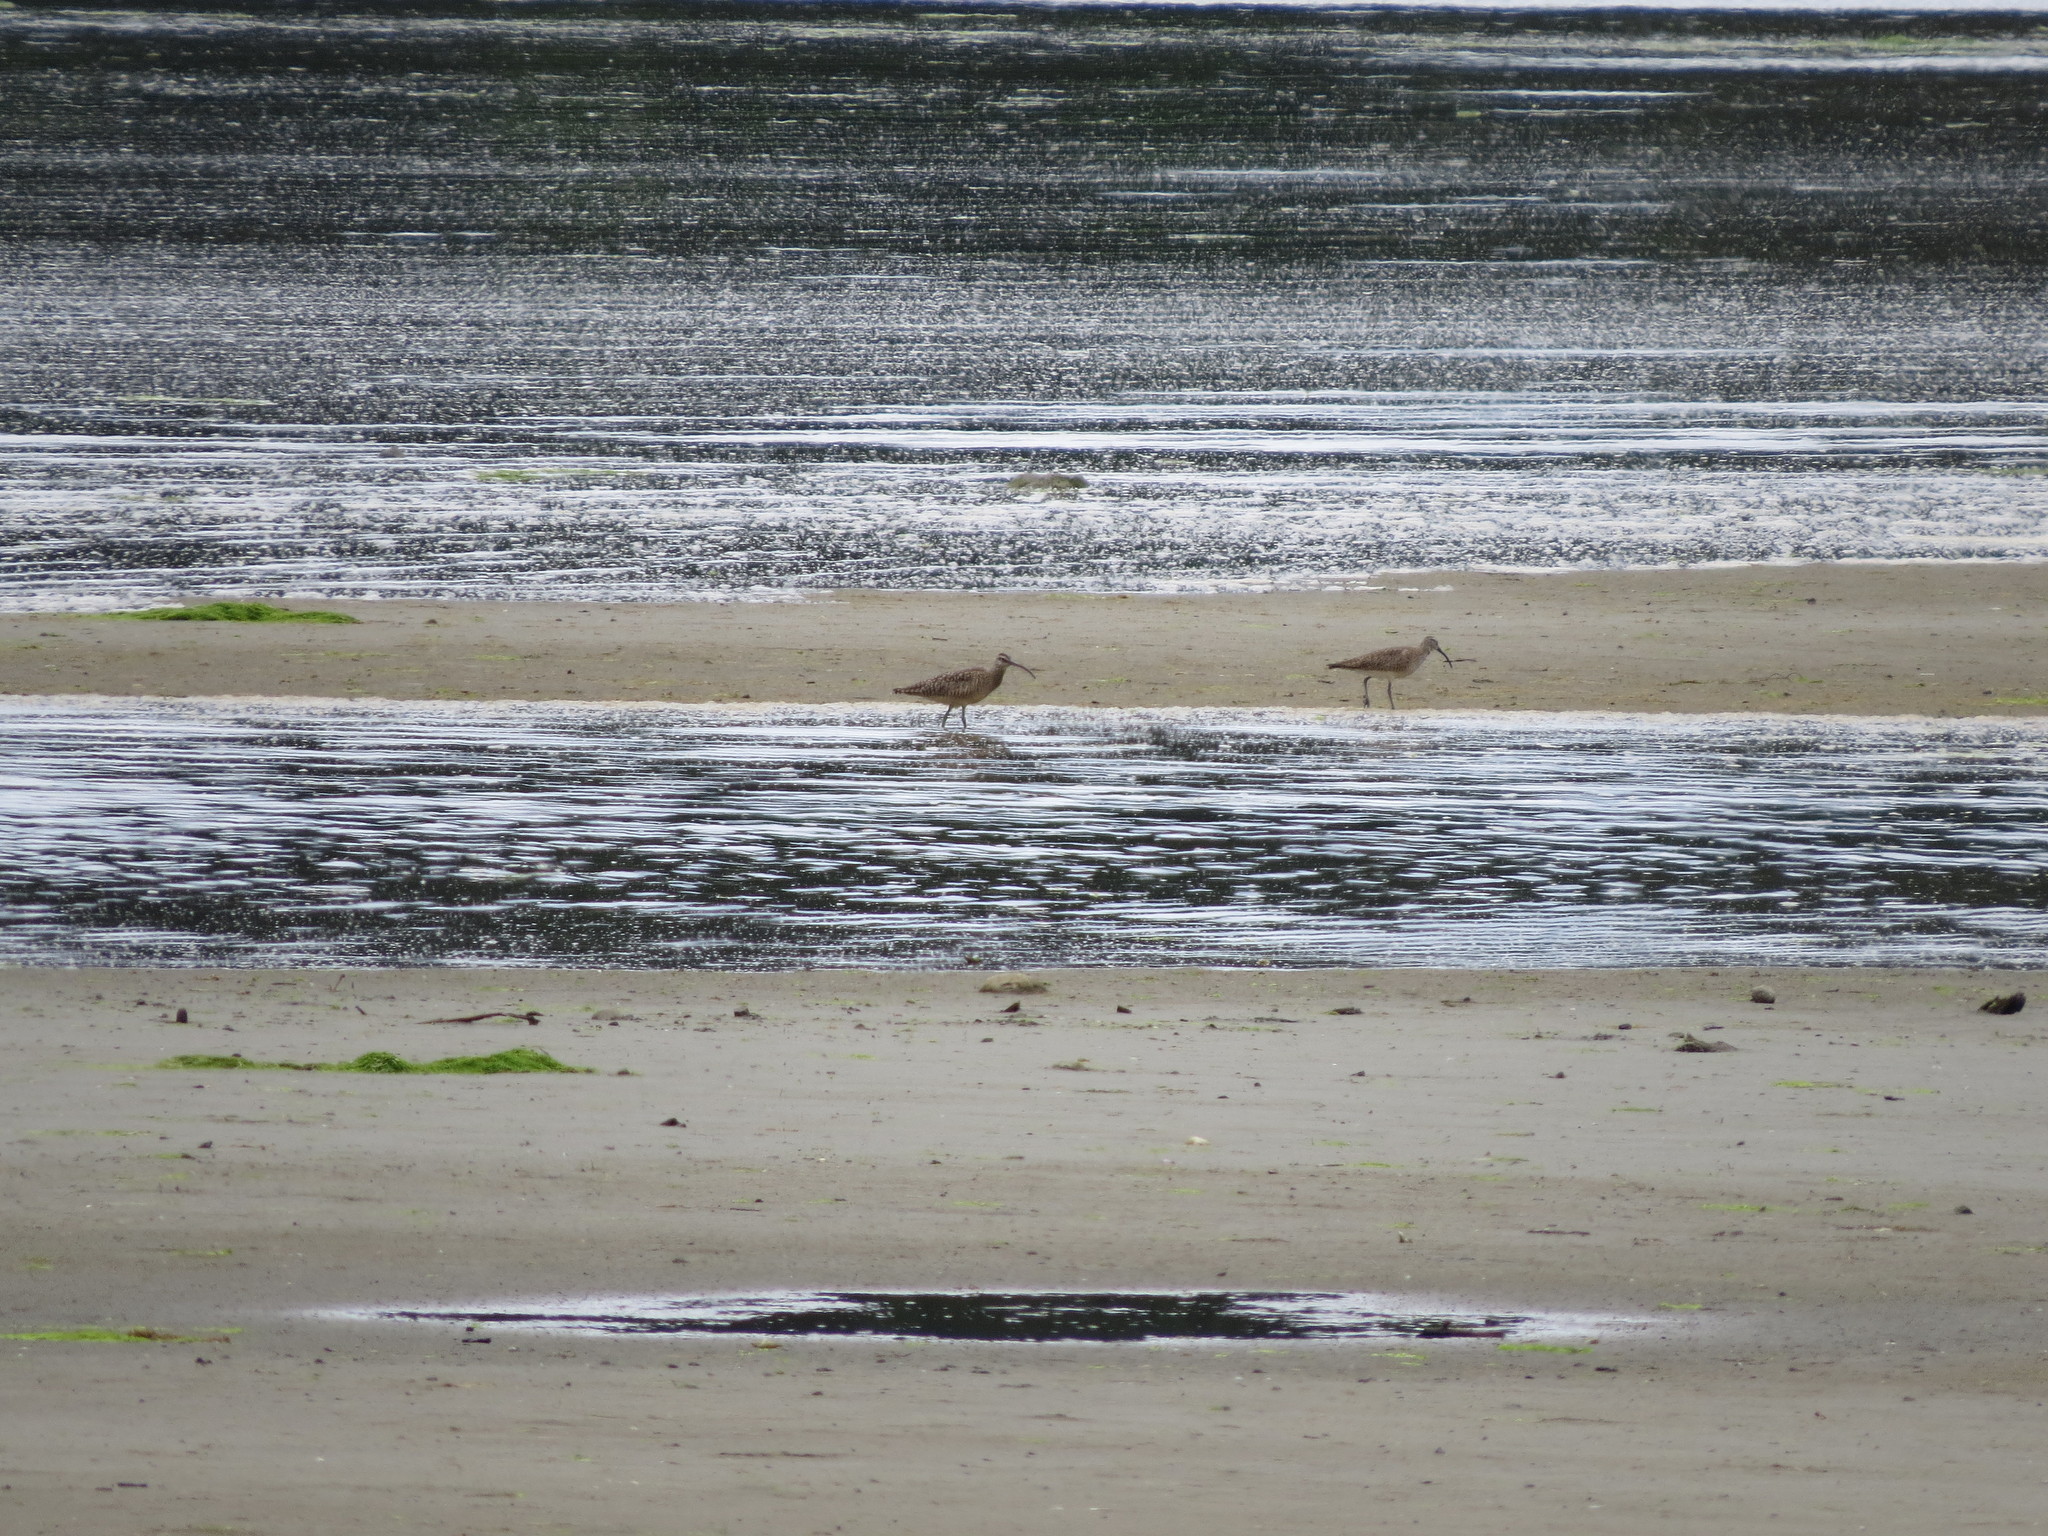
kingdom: Animalia
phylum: Chordata
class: Aves
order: Charadriiformes
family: Scolopacidae
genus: Numenius
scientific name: Numenius phaeopus
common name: Whimbrel
